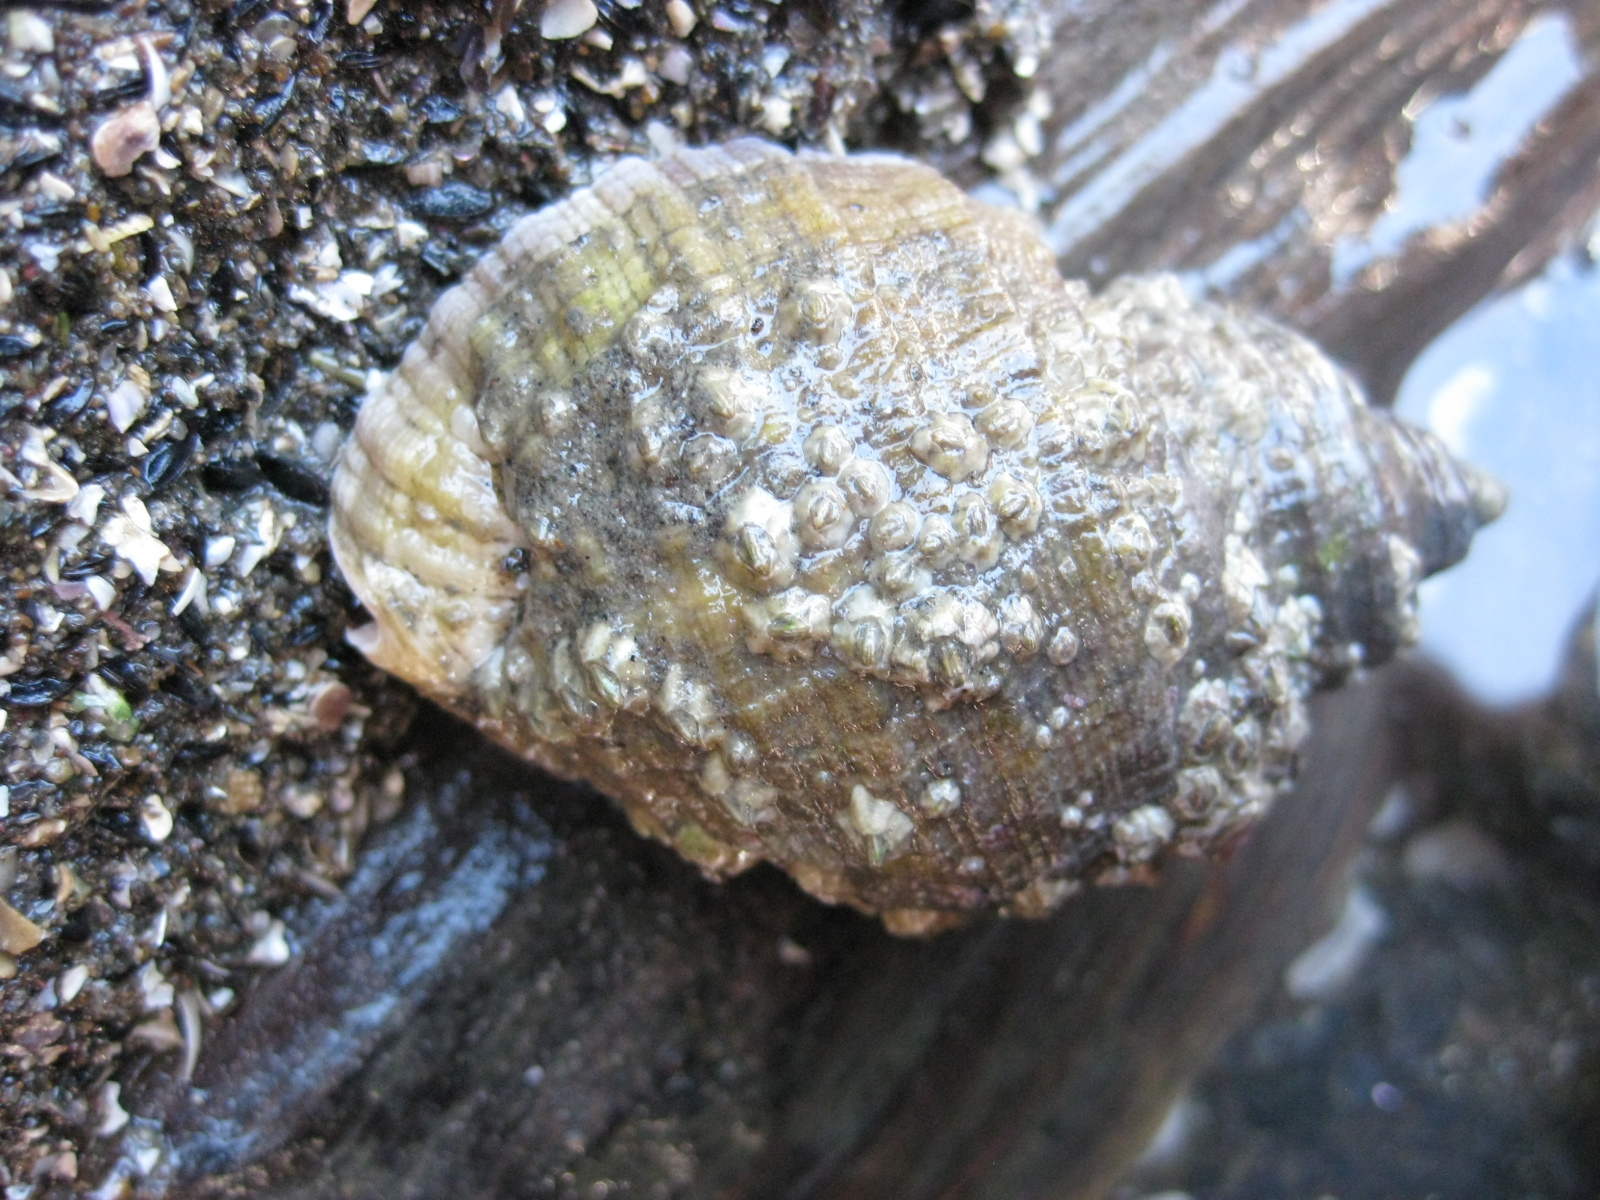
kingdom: Animalia
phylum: Mollusca
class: Gastropoda
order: Neogastropoda
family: Muricidae
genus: Dicathais
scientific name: Dicathais orbita
